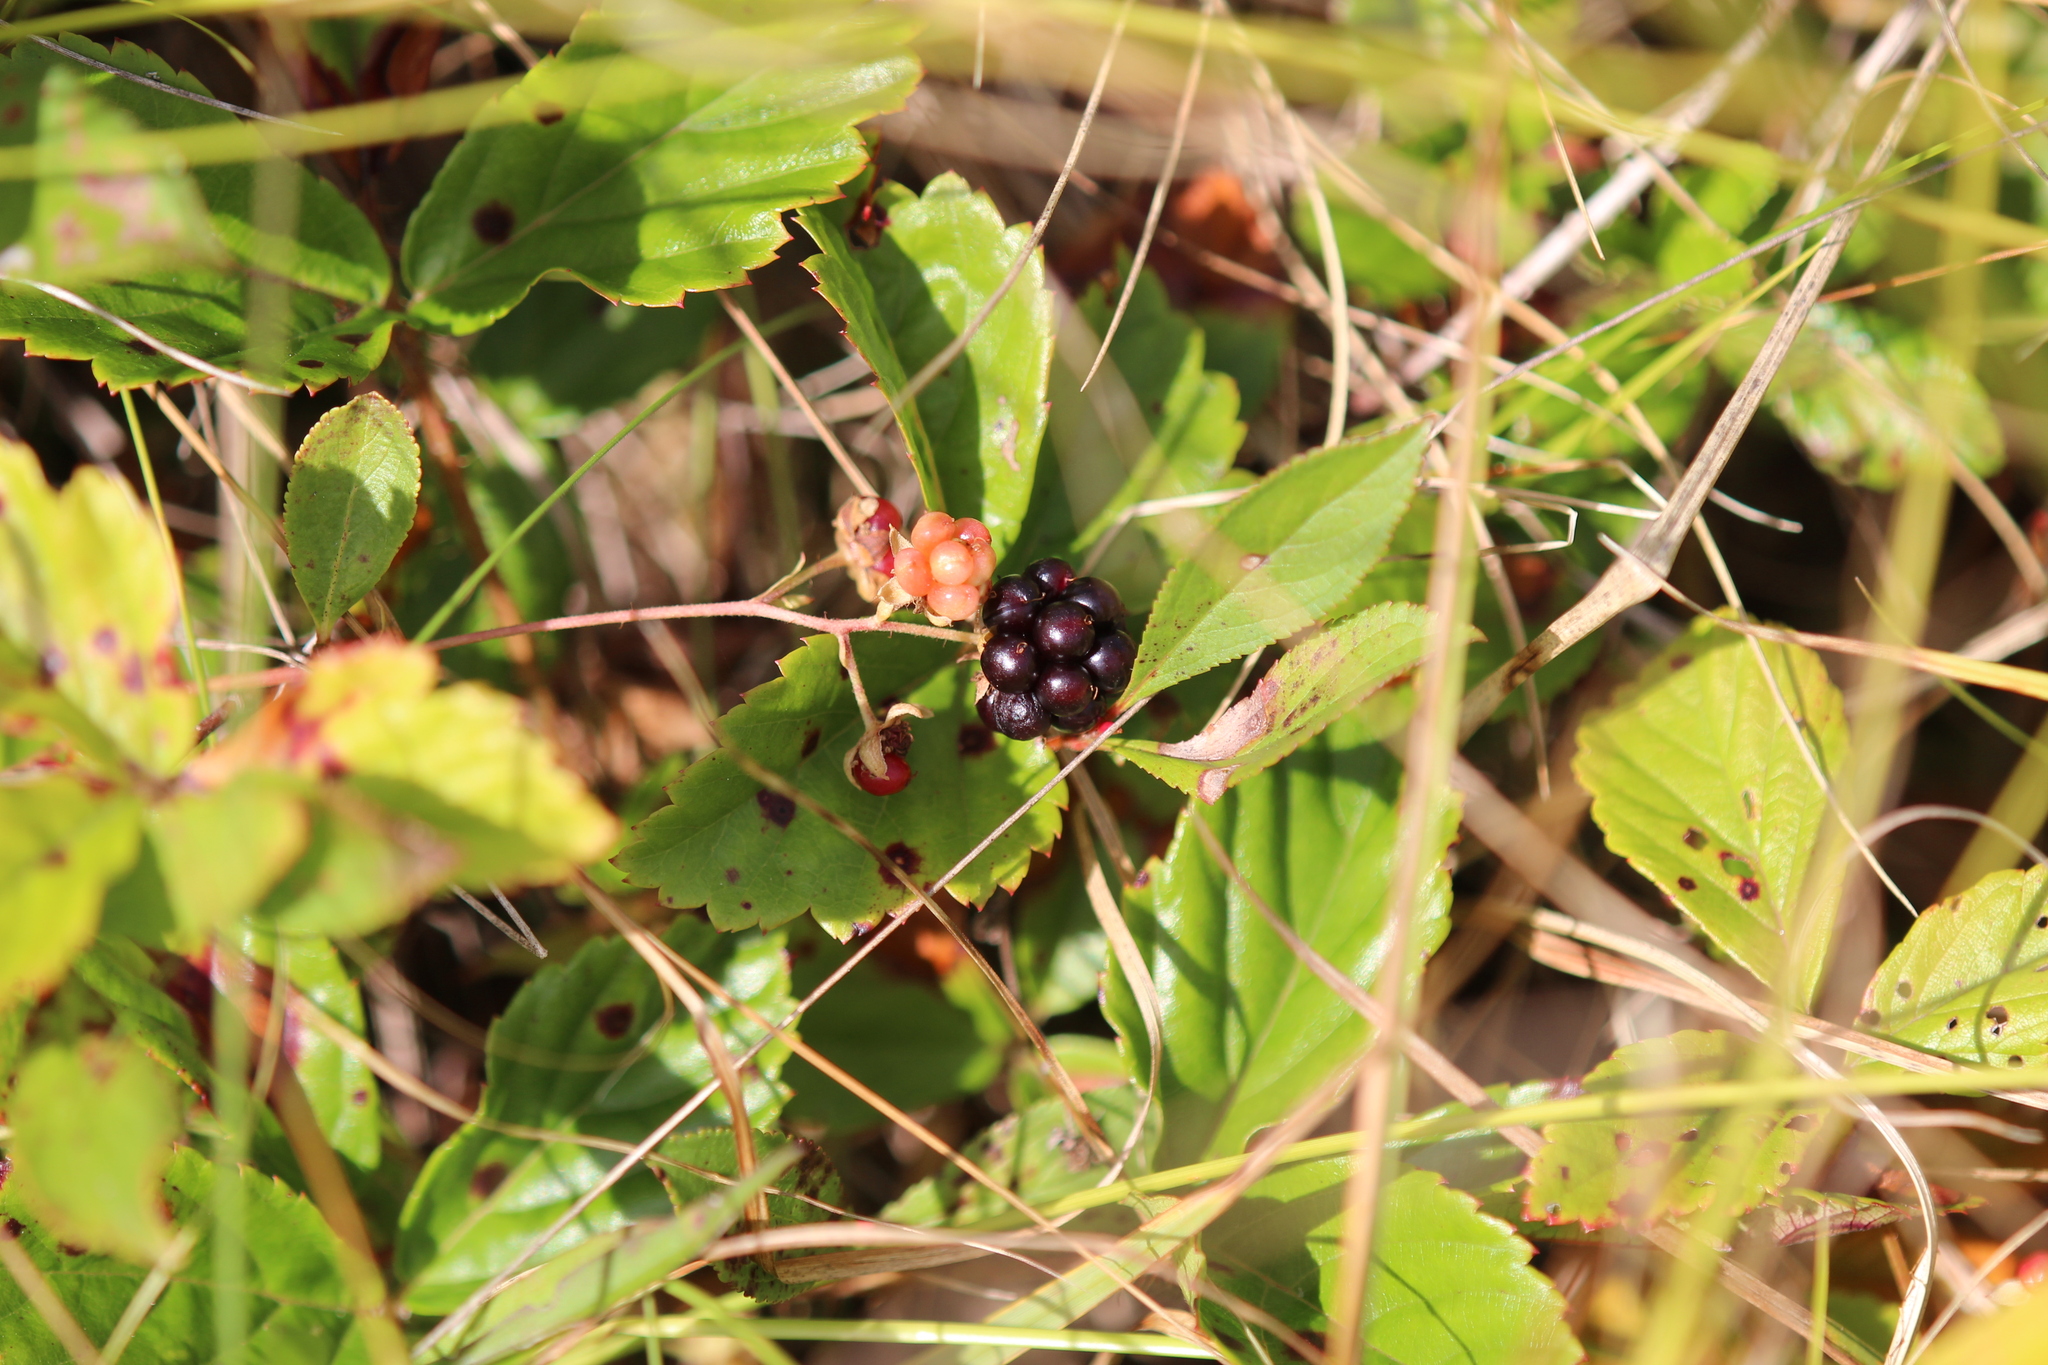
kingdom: Plantae
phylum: Tracheophyta
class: Magnoliopsida
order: Rosales
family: Rosaceae
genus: Rubus
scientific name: Rubus hispidus
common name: Running blackberry
